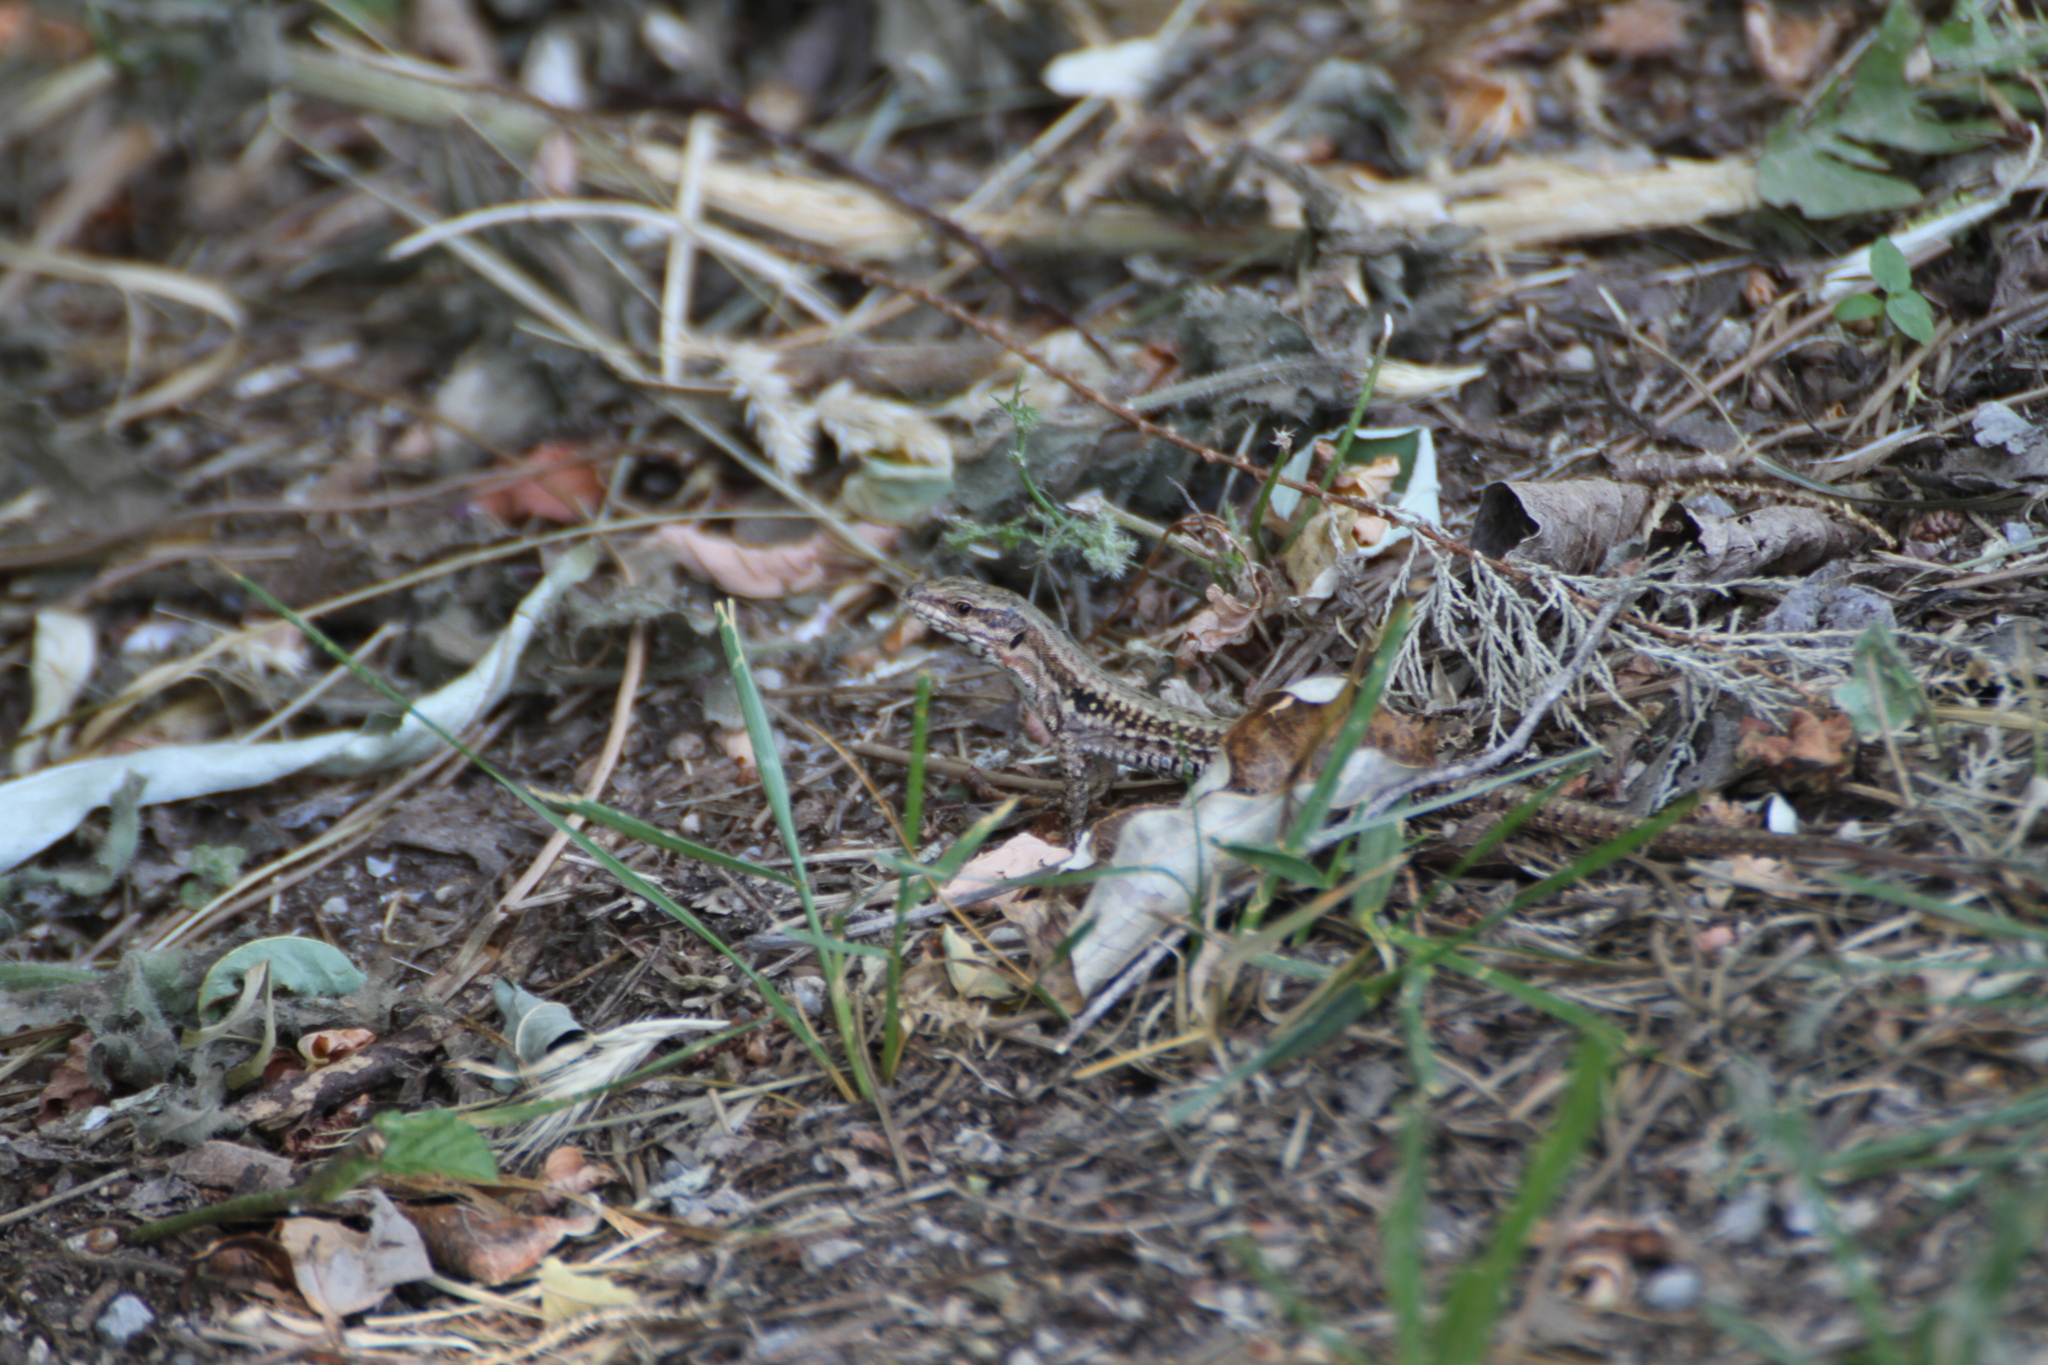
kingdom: Animalia
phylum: Chordata
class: Squamata
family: Lacertidae
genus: Podarcis
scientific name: Podarcis muralis
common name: Common wall lizard
